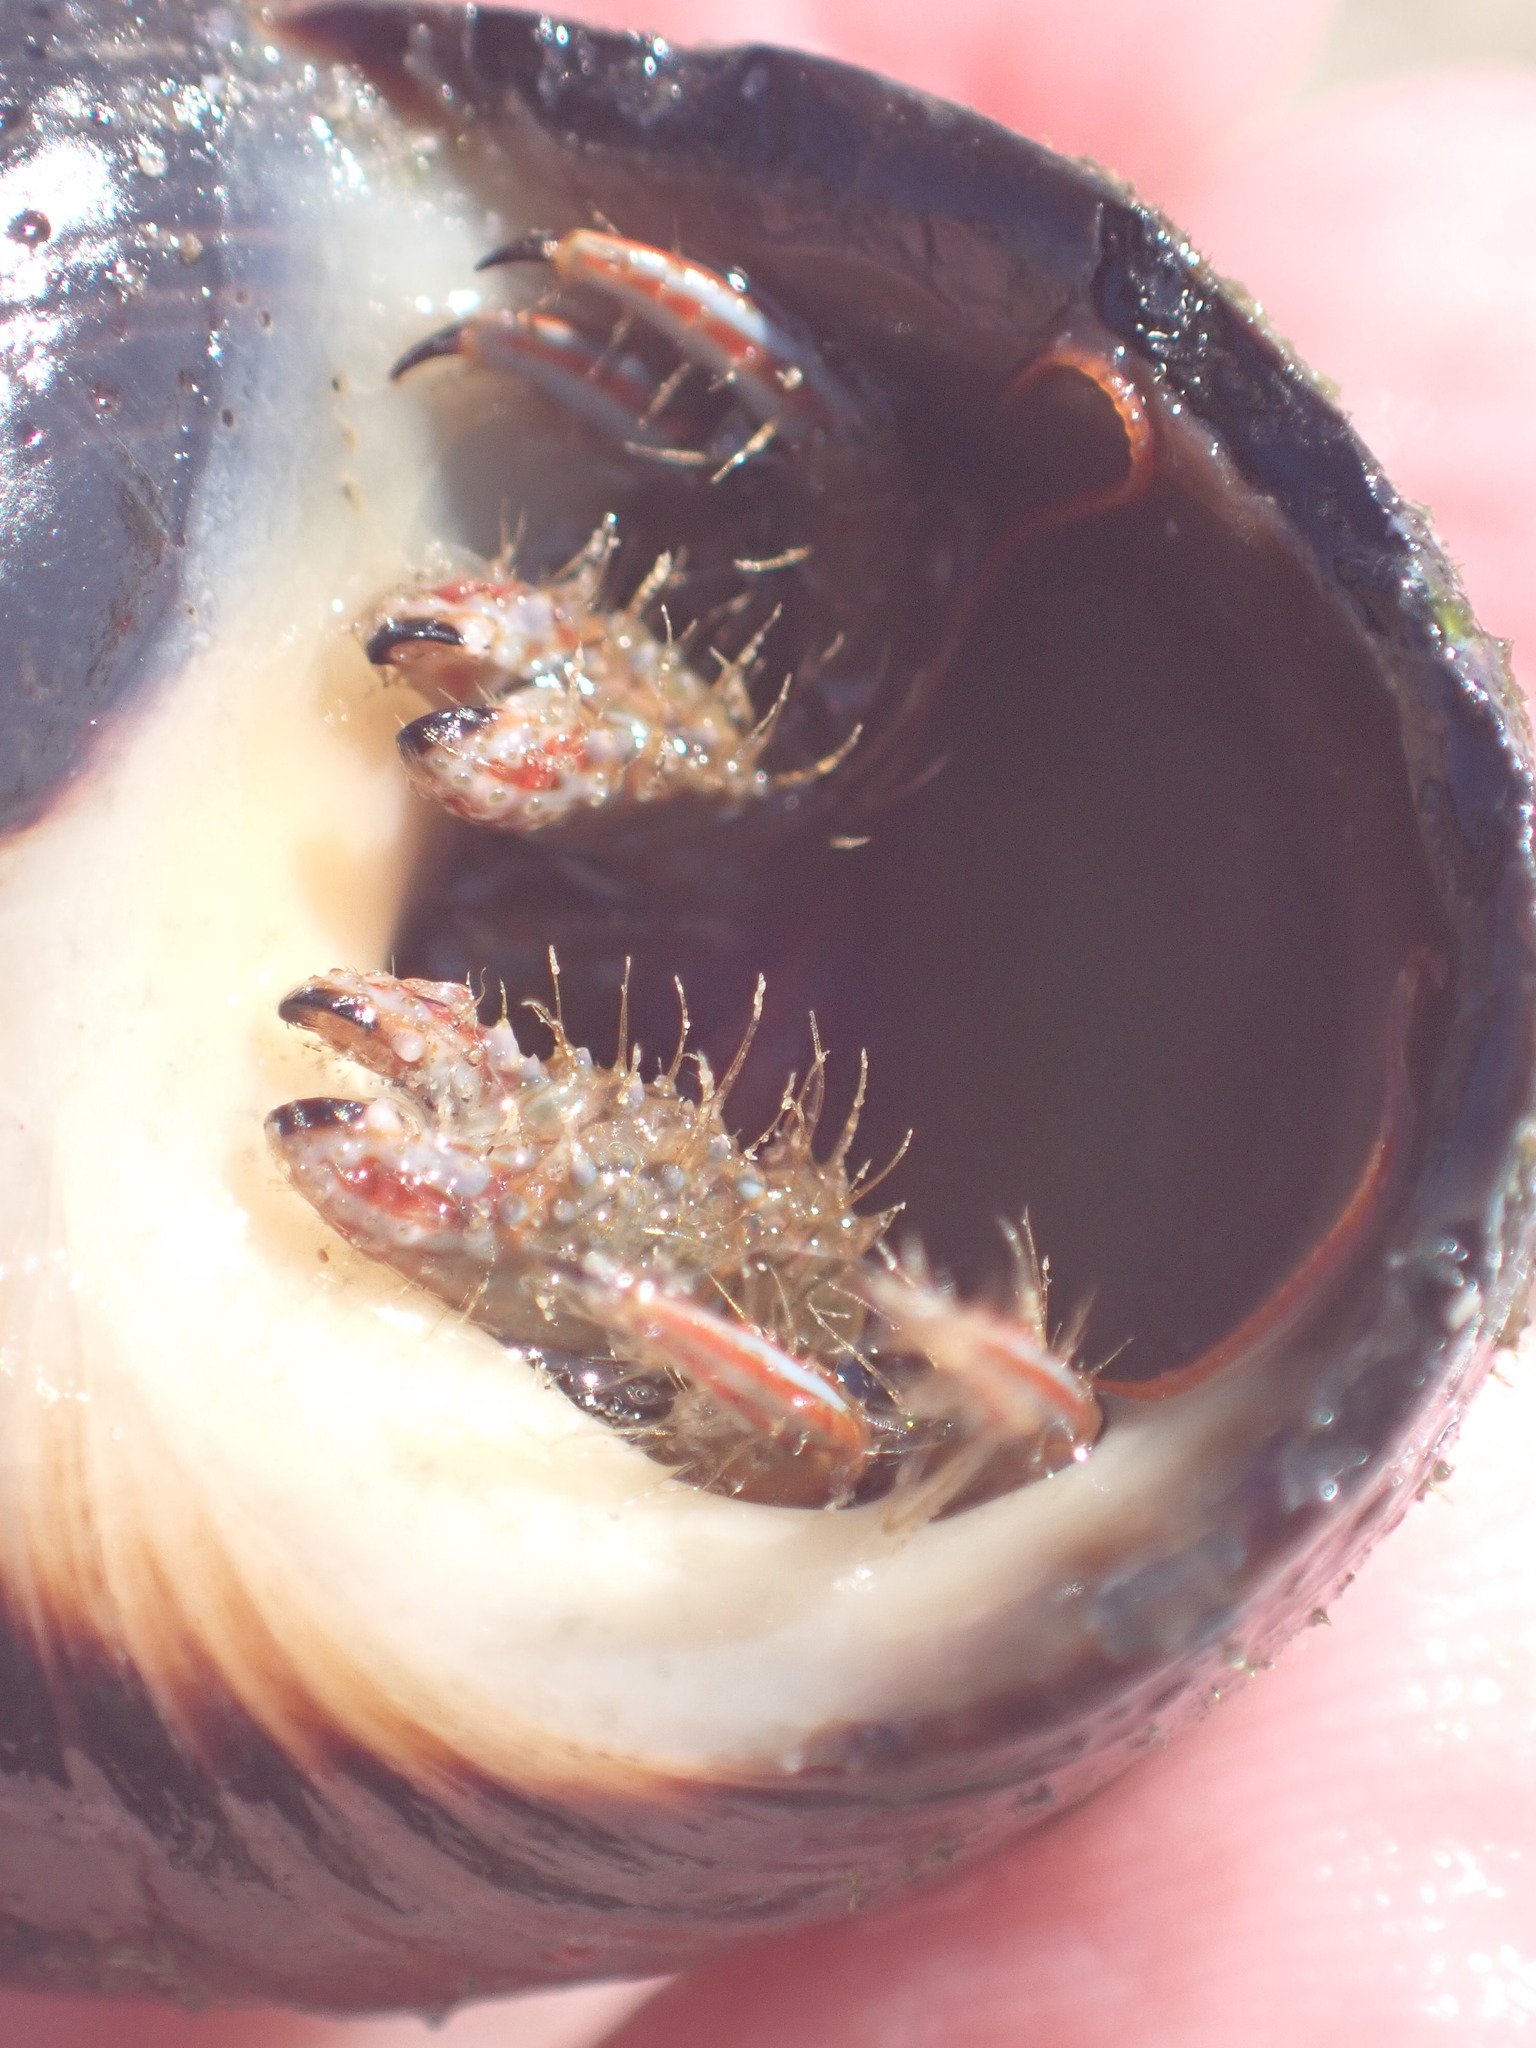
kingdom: Animalia
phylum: Arthropoda
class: Malacostraca
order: Decapoda
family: Diogenidae
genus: Clibanarius
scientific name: Clibanarius erythropus
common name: Hermit crab
